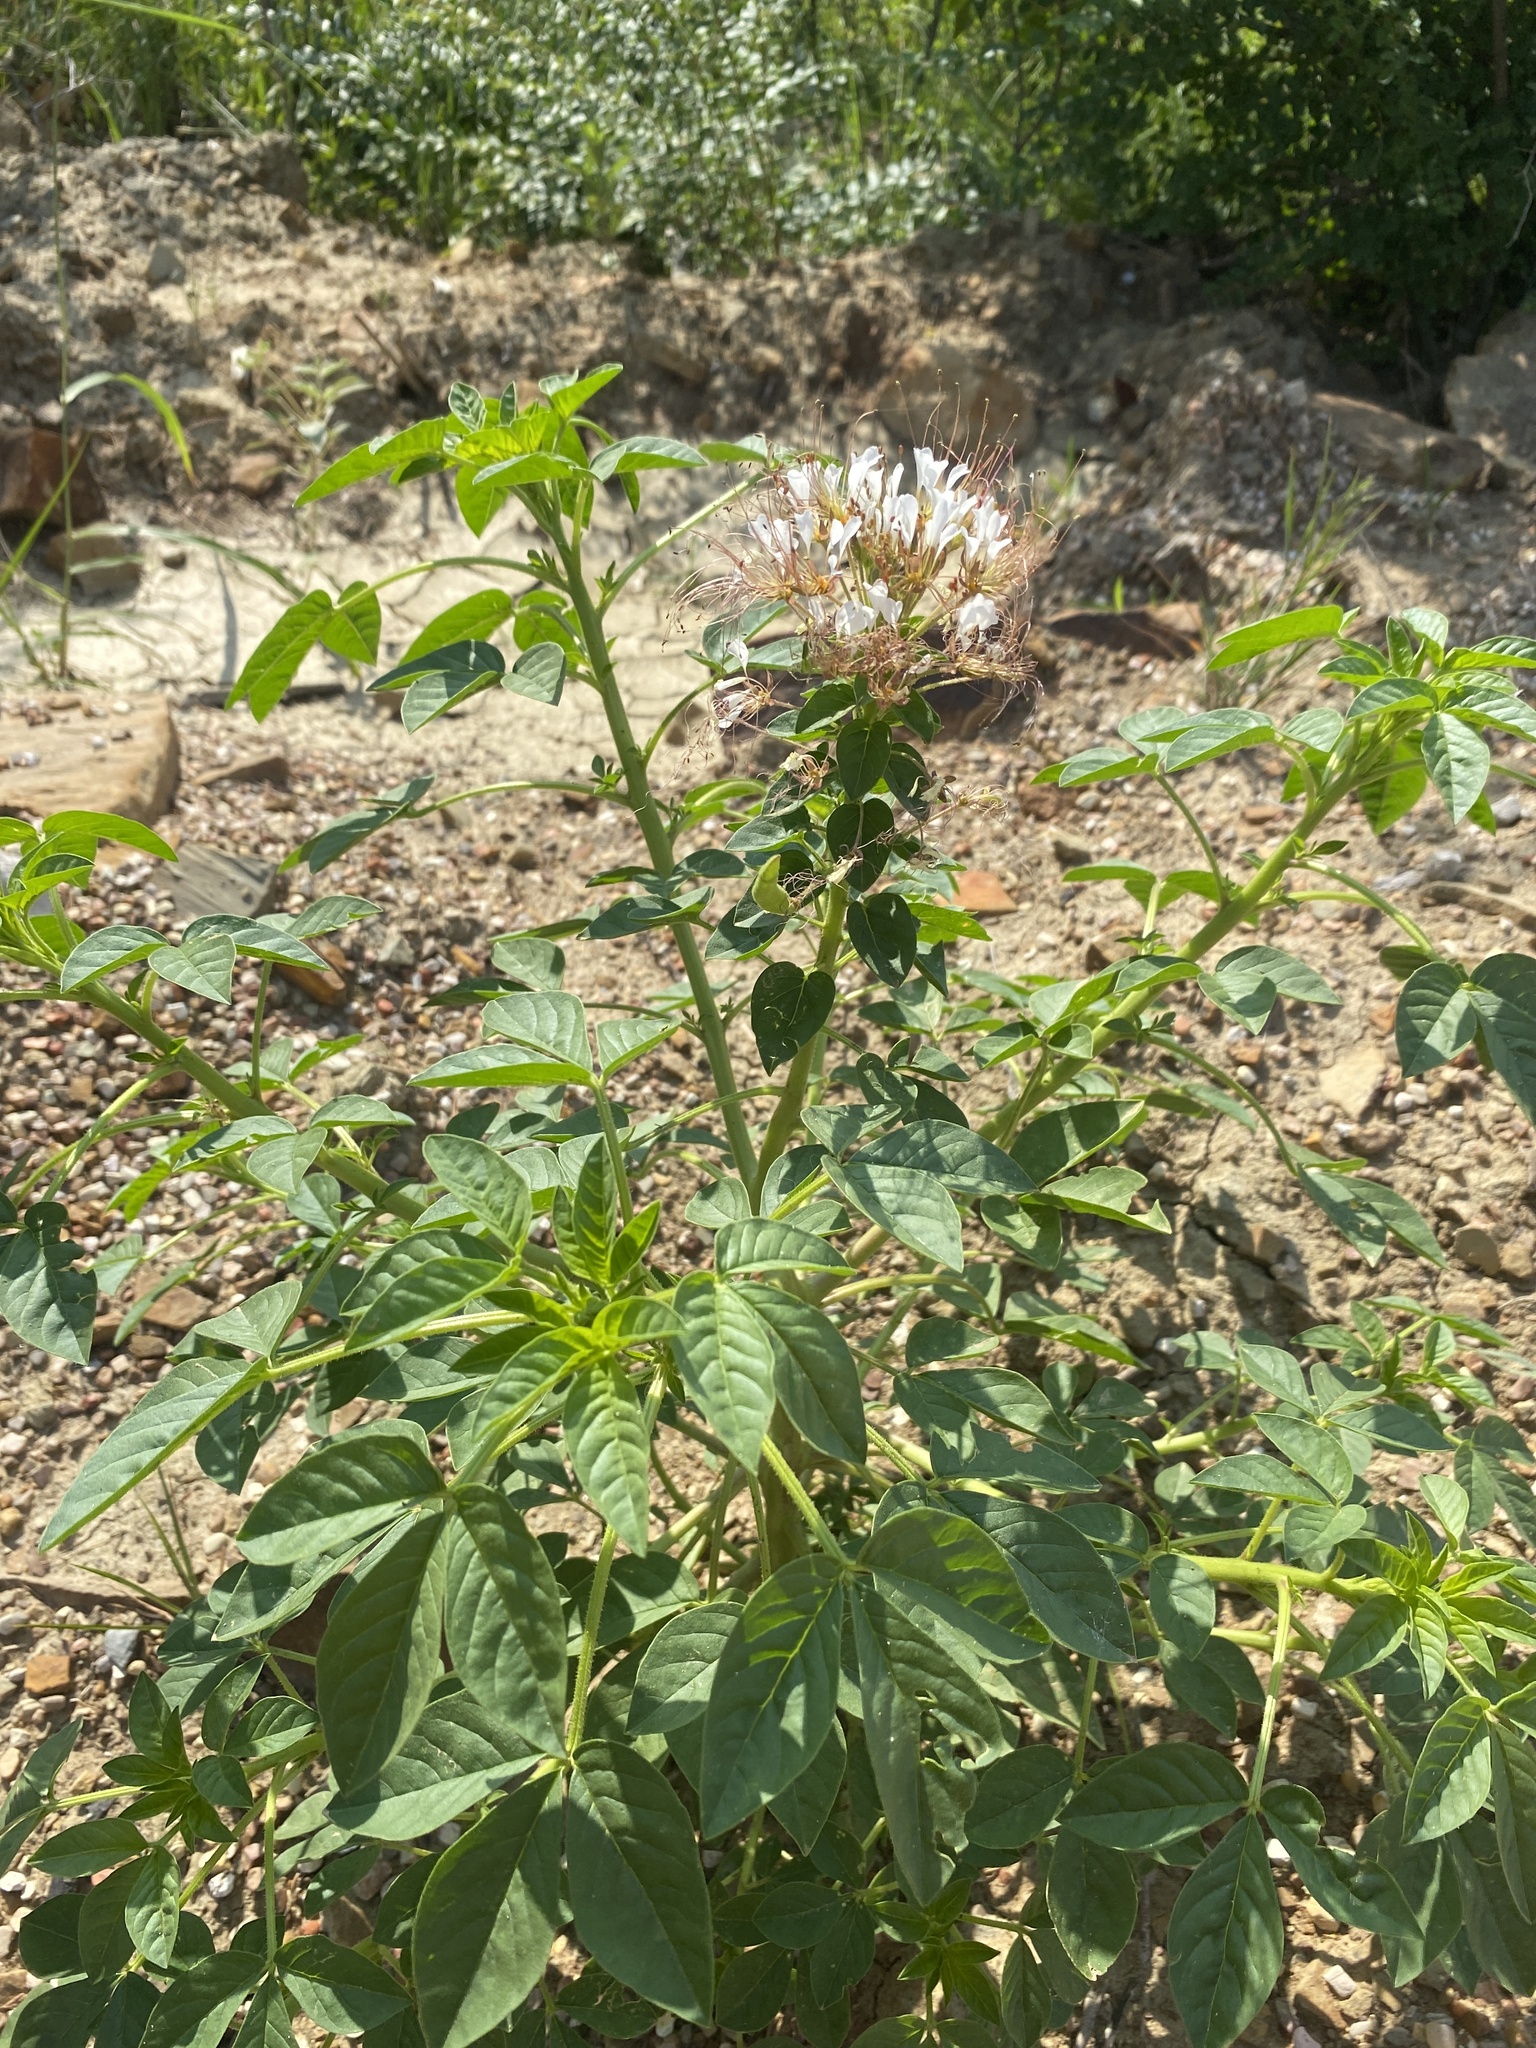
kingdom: Plantae
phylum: Tracheophyta
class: Magnoliopsida
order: Brassicales
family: Cleomaceae
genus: Polanisia
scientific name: Polanisia dodecandra
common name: Clammyweed
